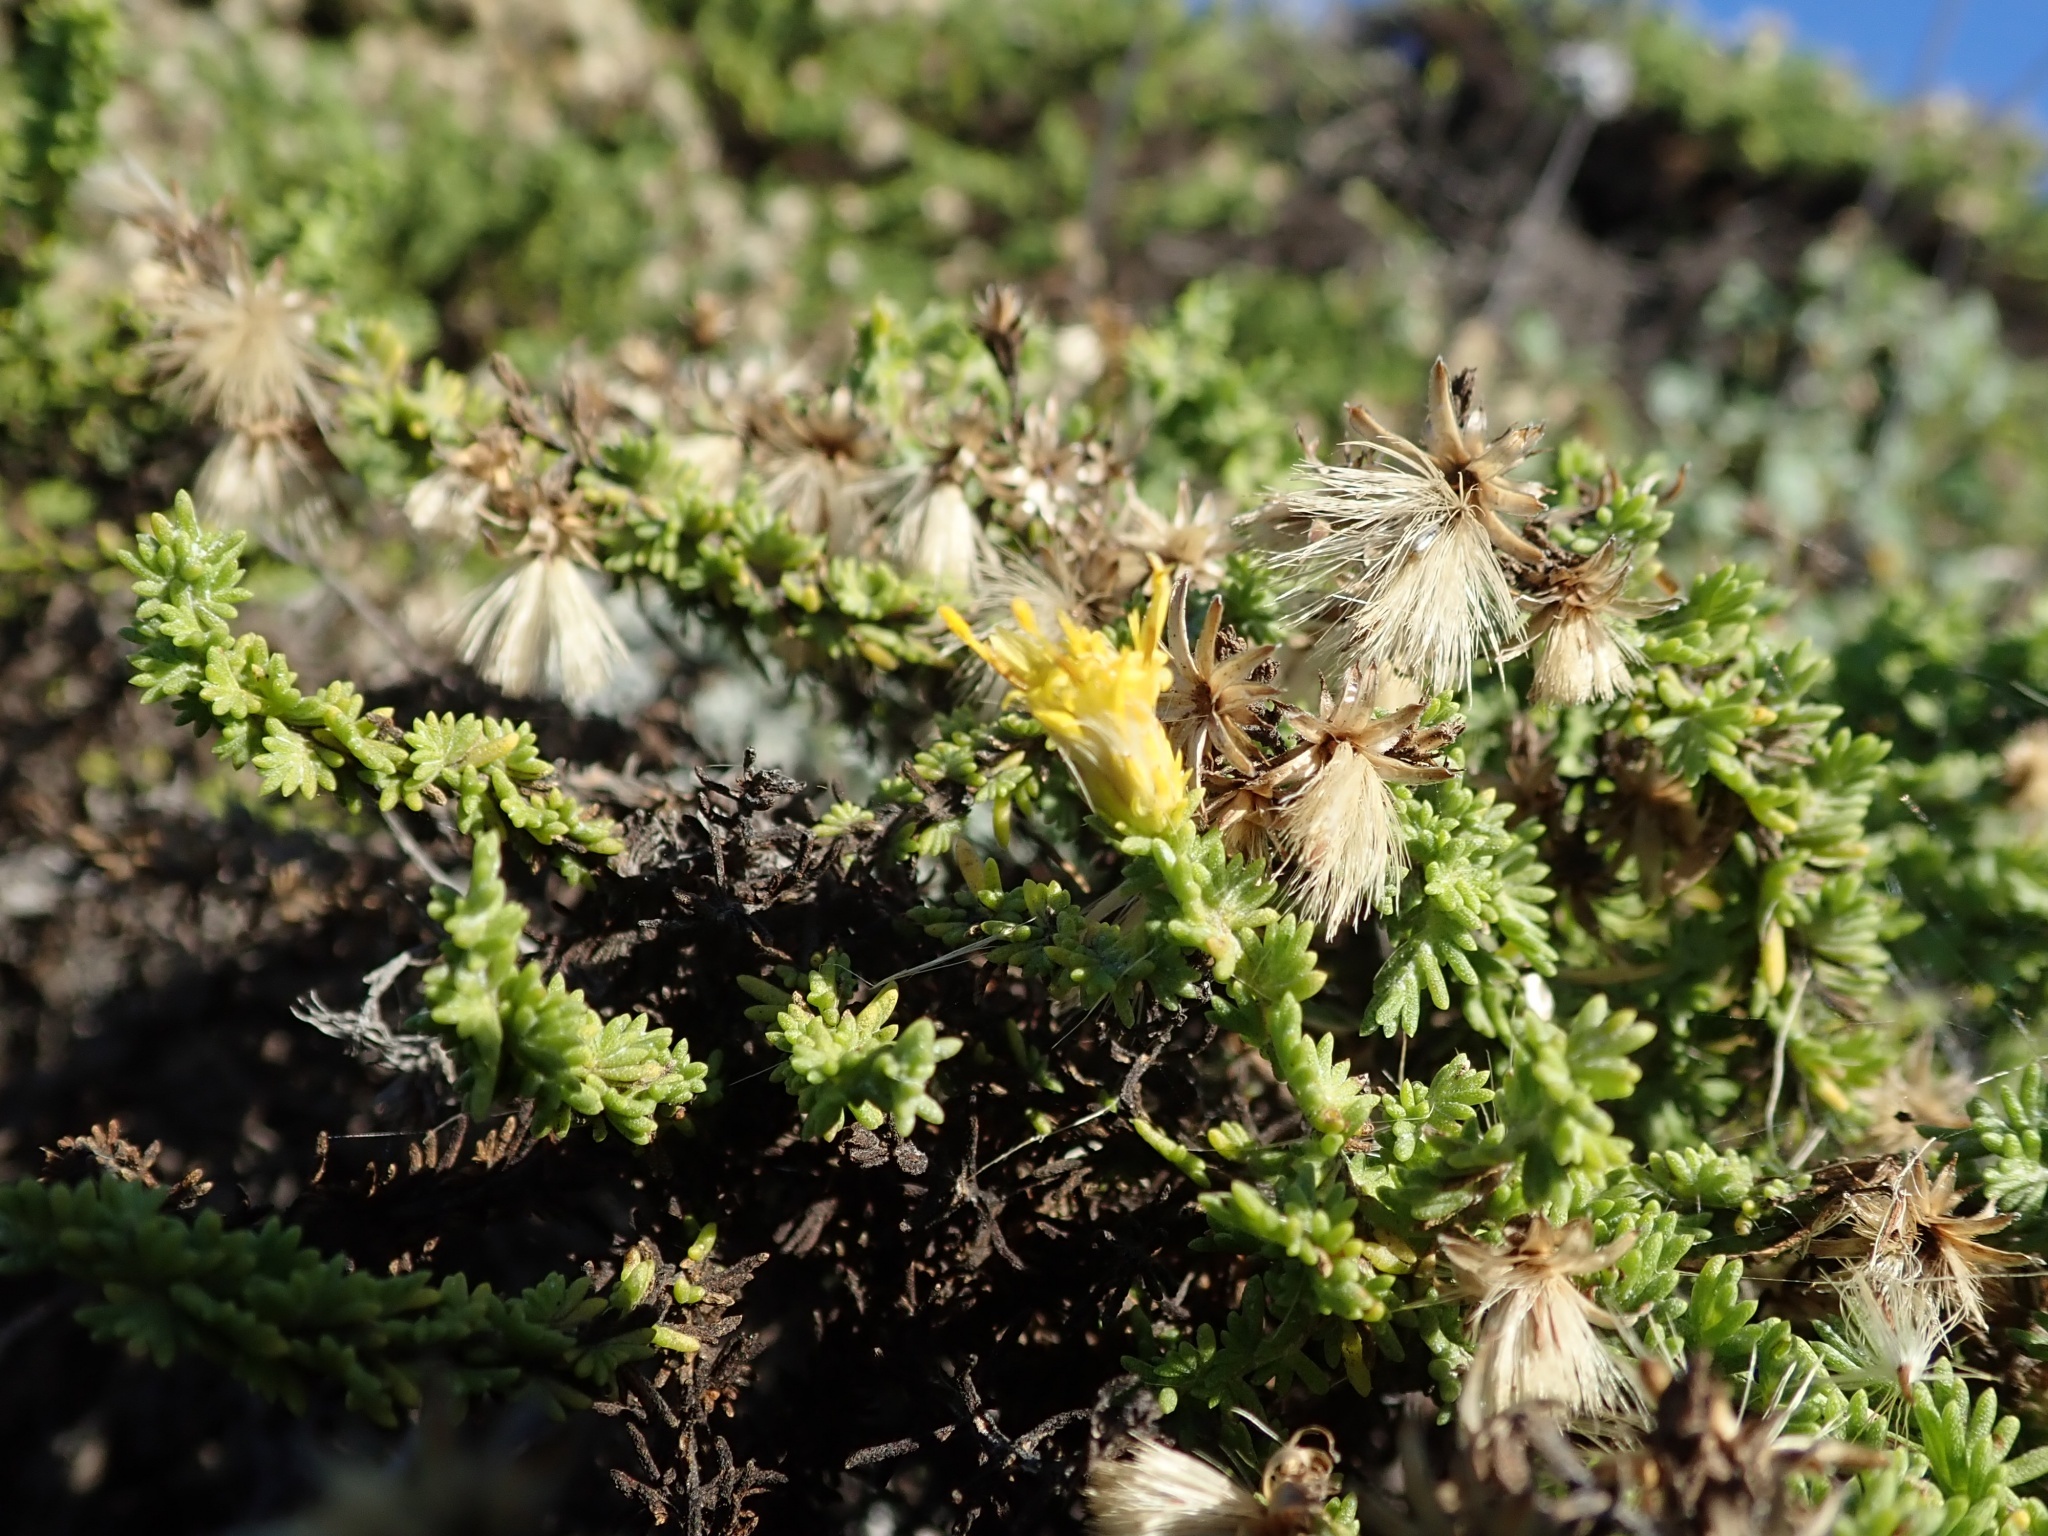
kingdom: Plantae
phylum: Tracheophyta
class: Magnoliopsida
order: Asterales
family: Asteraceae
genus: Ericameria
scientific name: Ericameria ericoides
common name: California goldenbush
